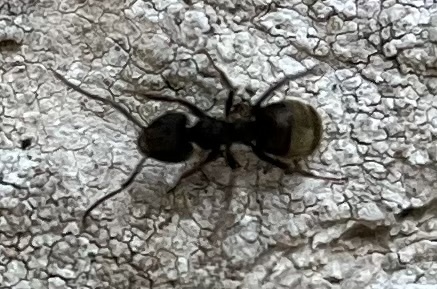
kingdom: Animalia
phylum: Arthropoda
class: Insecta
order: Hymenoptera
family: Formicidae
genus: Dolichoderus
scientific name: Dolichoderus bispinosus
